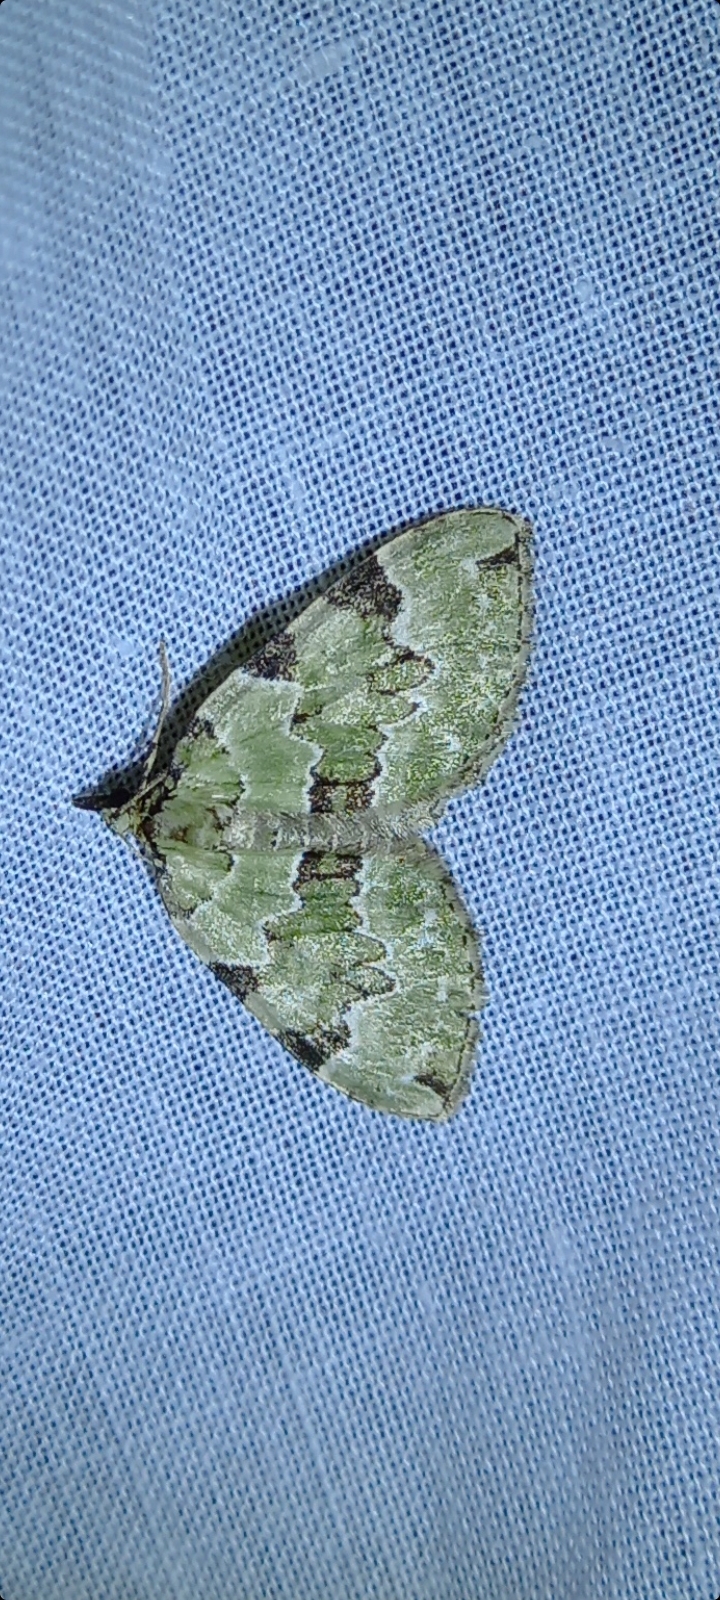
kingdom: Animalia
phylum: Arthropoda
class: Insecta
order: Lepidoptera
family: Geometridae
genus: Colostygia
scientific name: Colostygia pectinataria
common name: Green carpet
